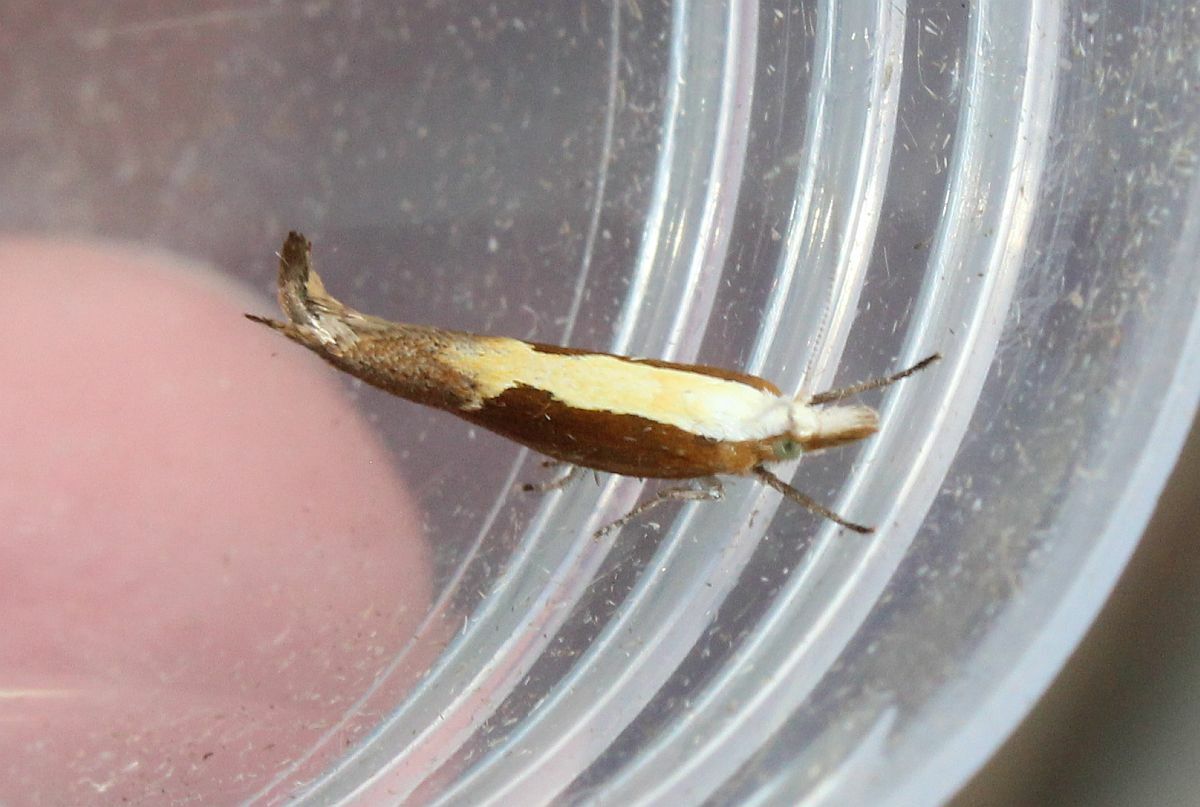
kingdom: Animalia
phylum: Arthropoda
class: Insecta
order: Lepidoptera
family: Ypsolophidae
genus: Ypsolopha
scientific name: Ypsolopha dentella
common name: Honeysuckle moth
